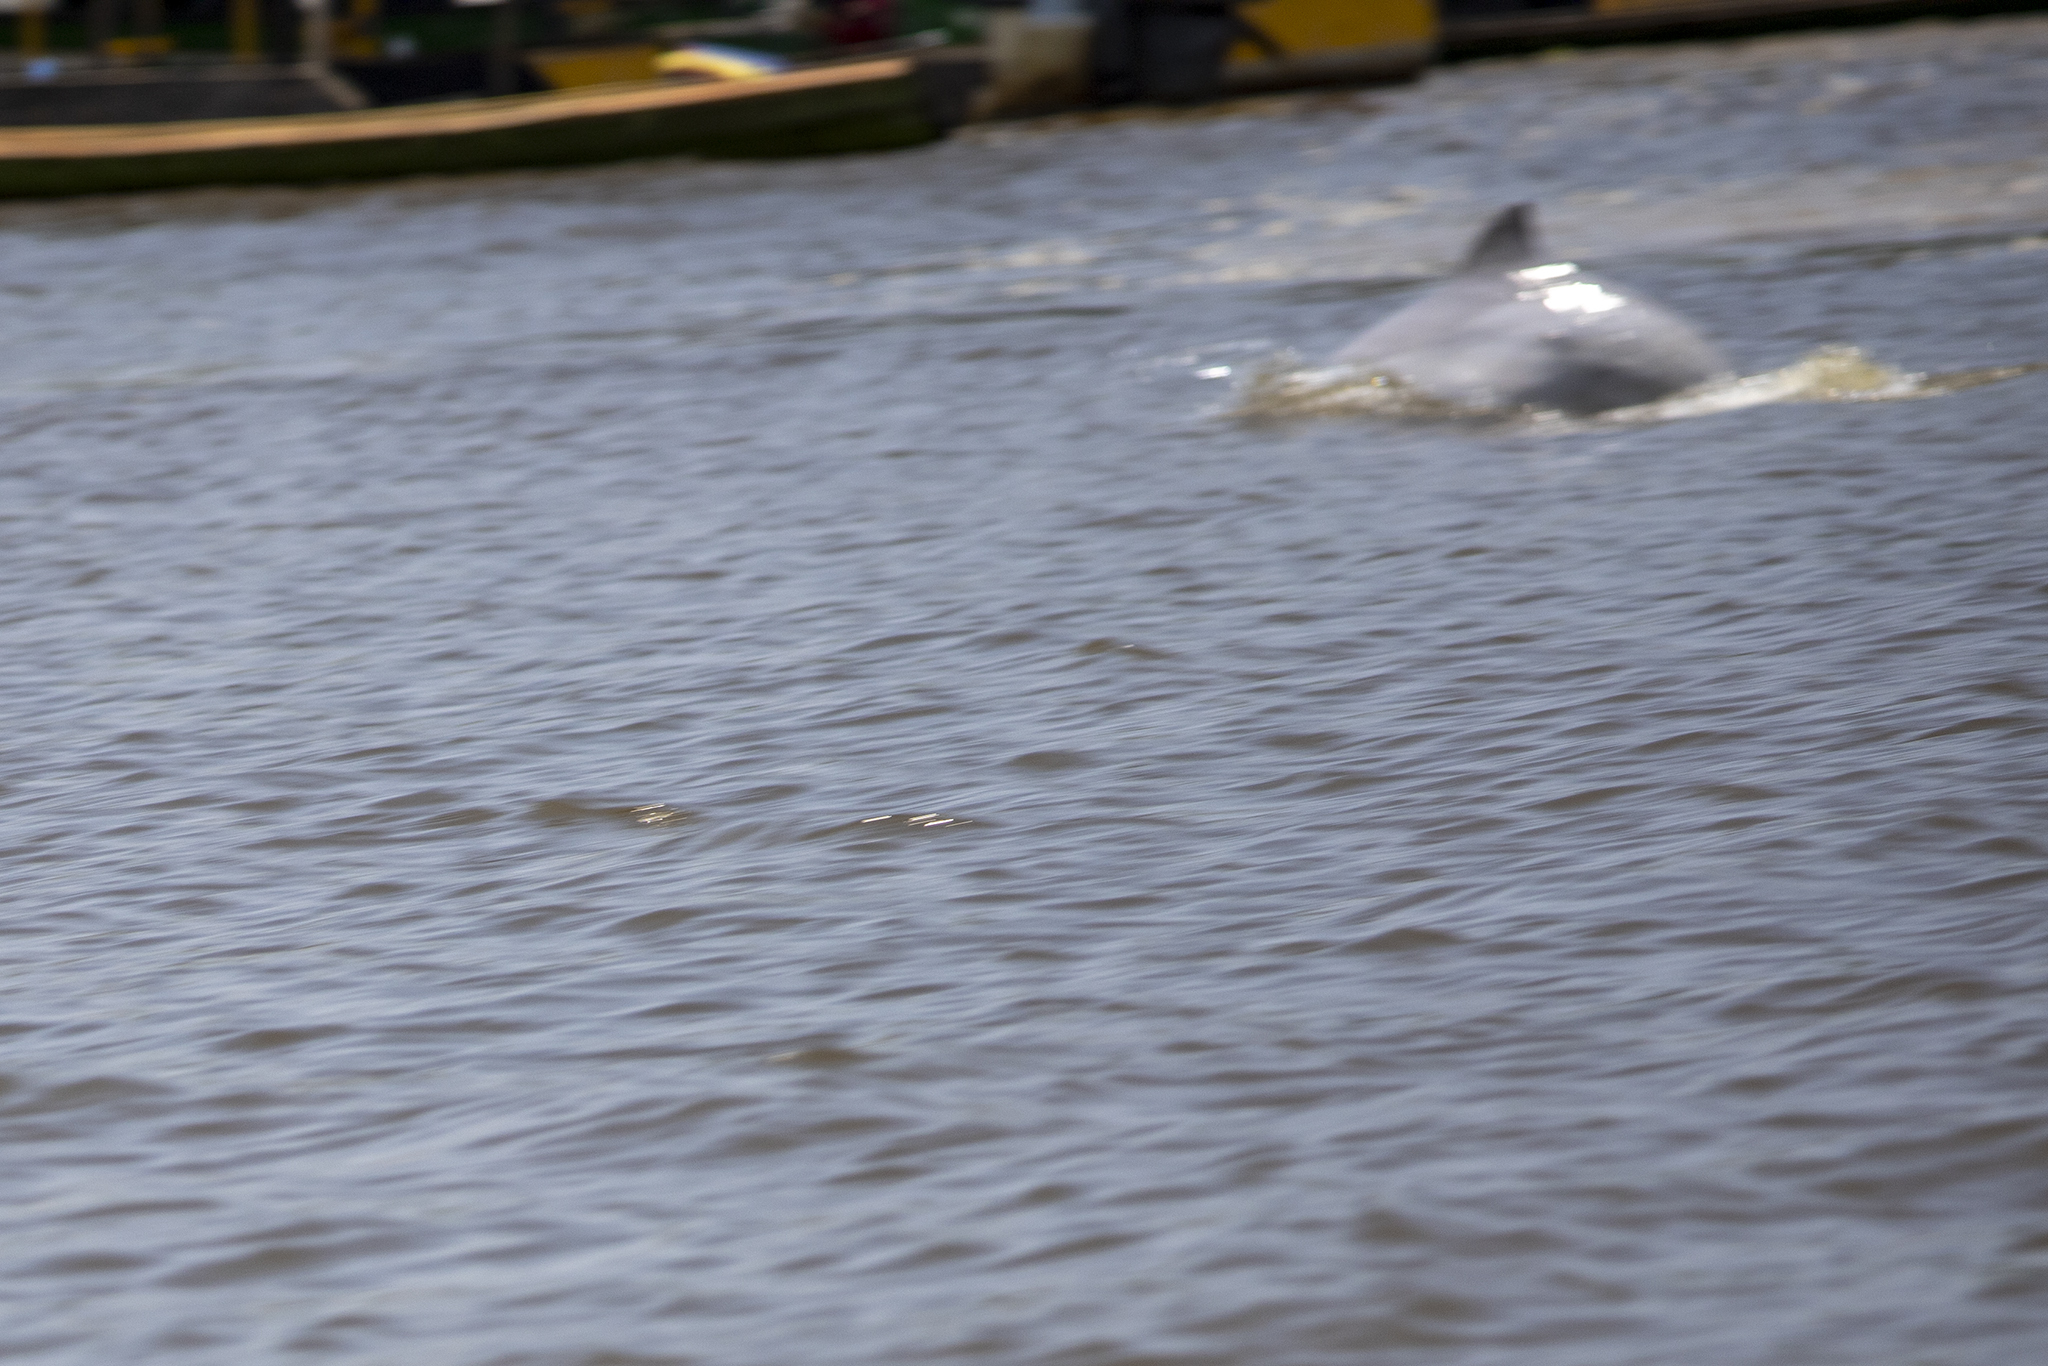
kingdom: Animalia
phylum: Chordata
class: Mammalia
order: Cetacea
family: Delphinidae
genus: Sotalia
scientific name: Sotalia fluviatilis
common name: Tucuxi
